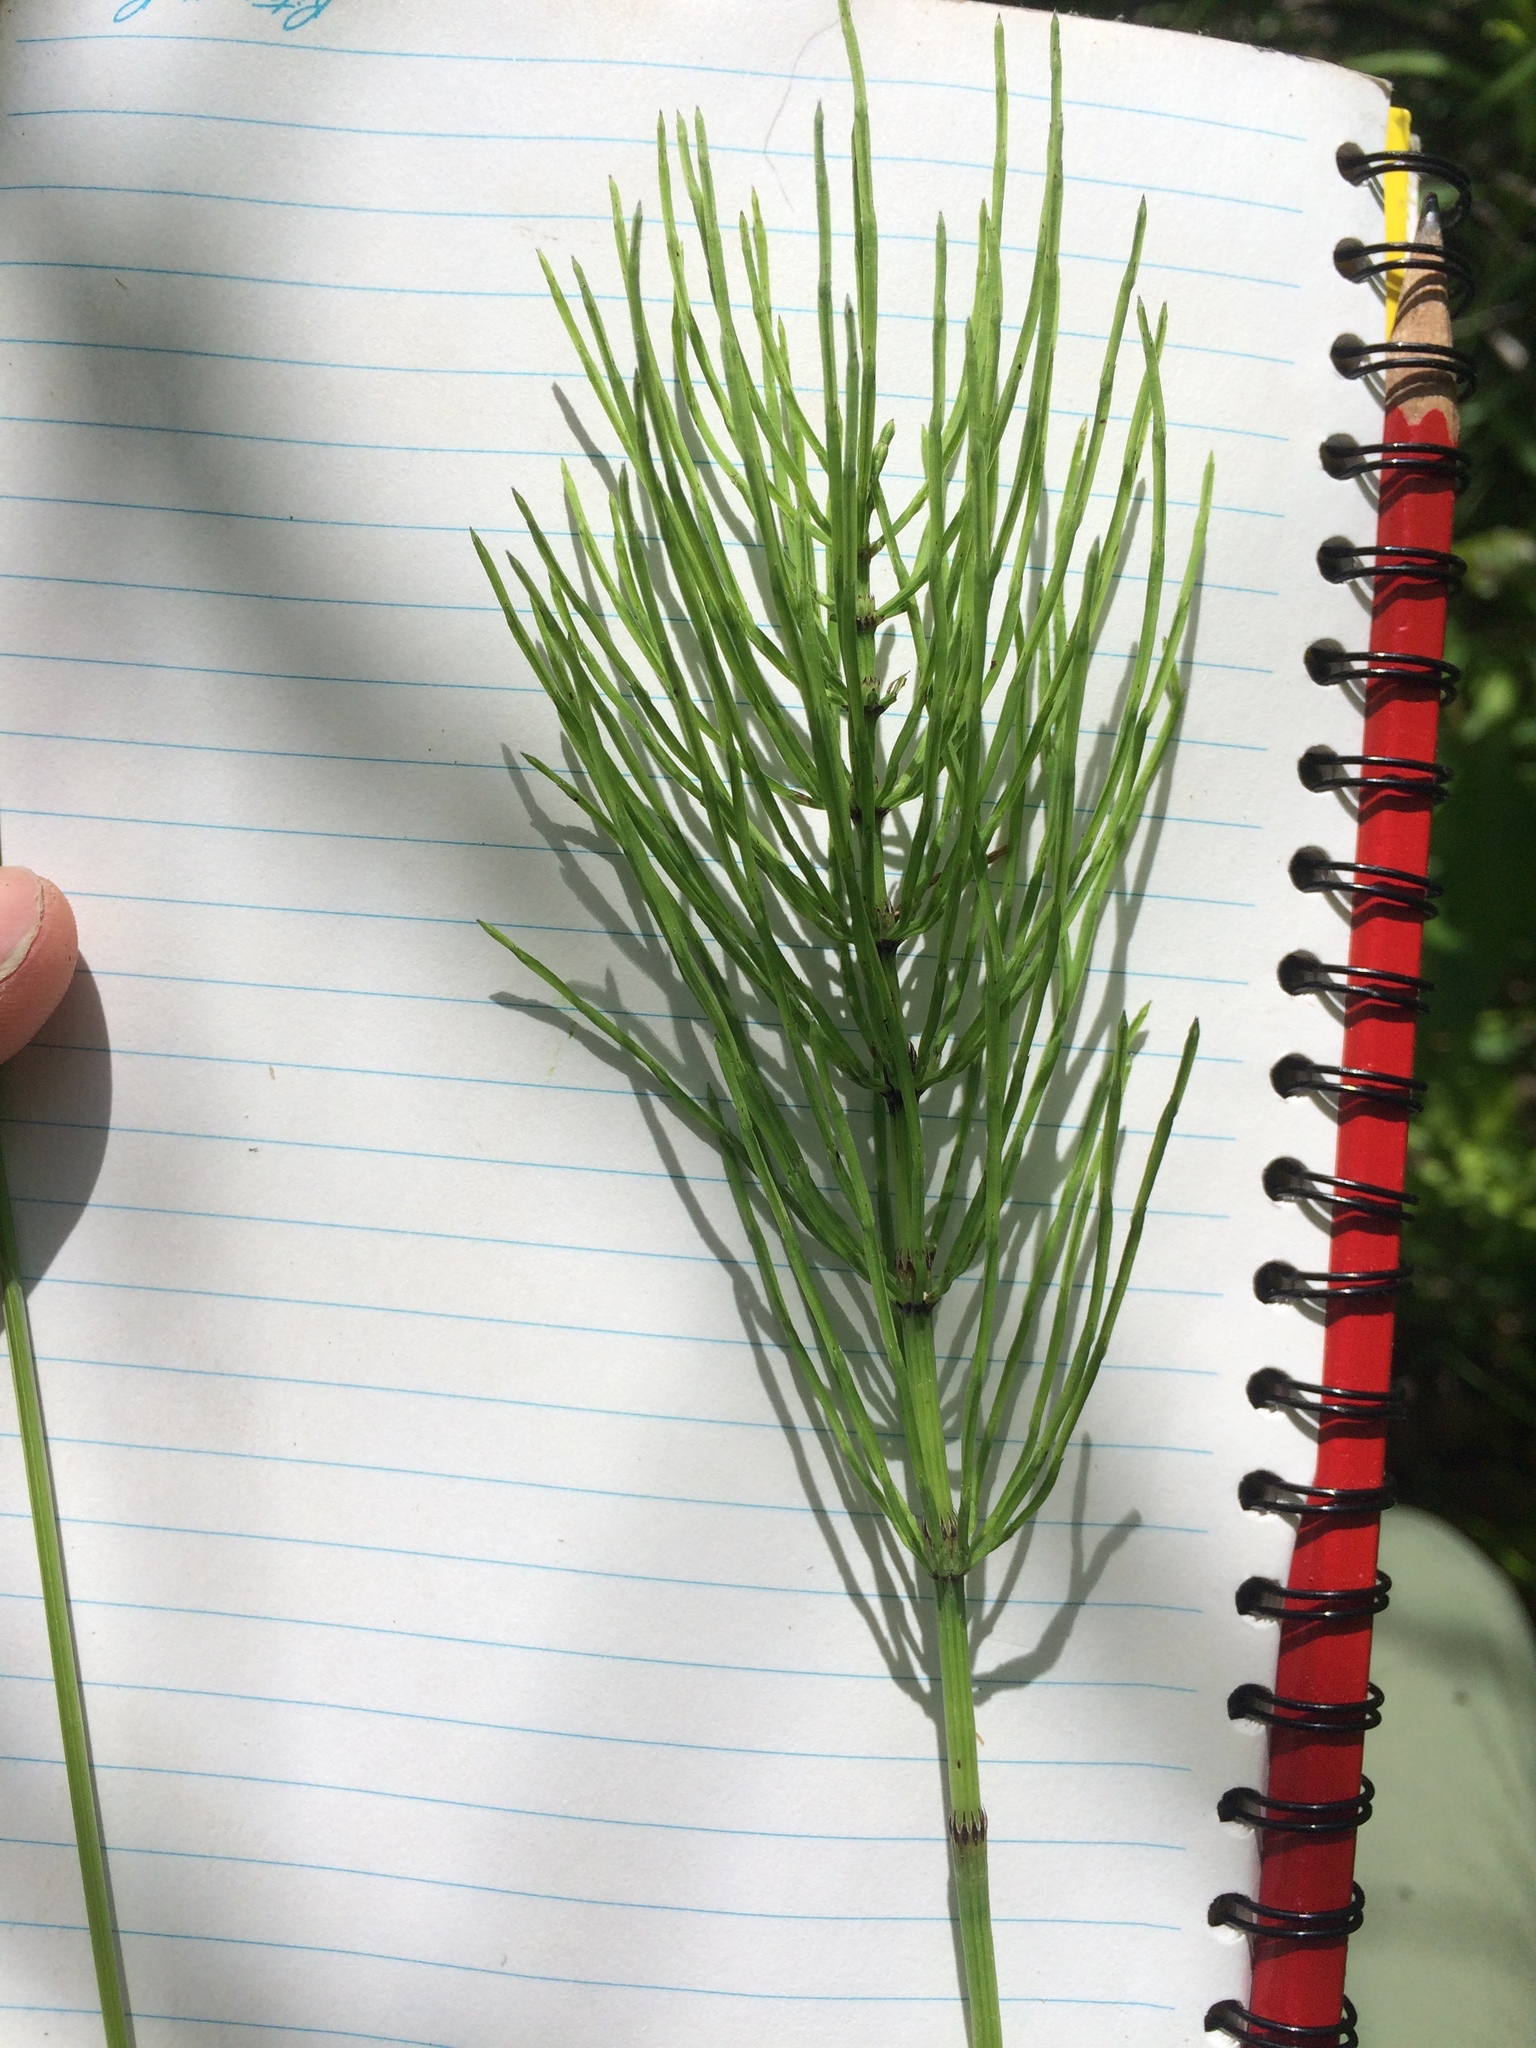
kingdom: Plantae
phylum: Tracheophyta
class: Polypodiopsida
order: Equisetales
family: Equisetaceae
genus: Equisetum
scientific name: Equisetum arvense
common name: Field horsetail
